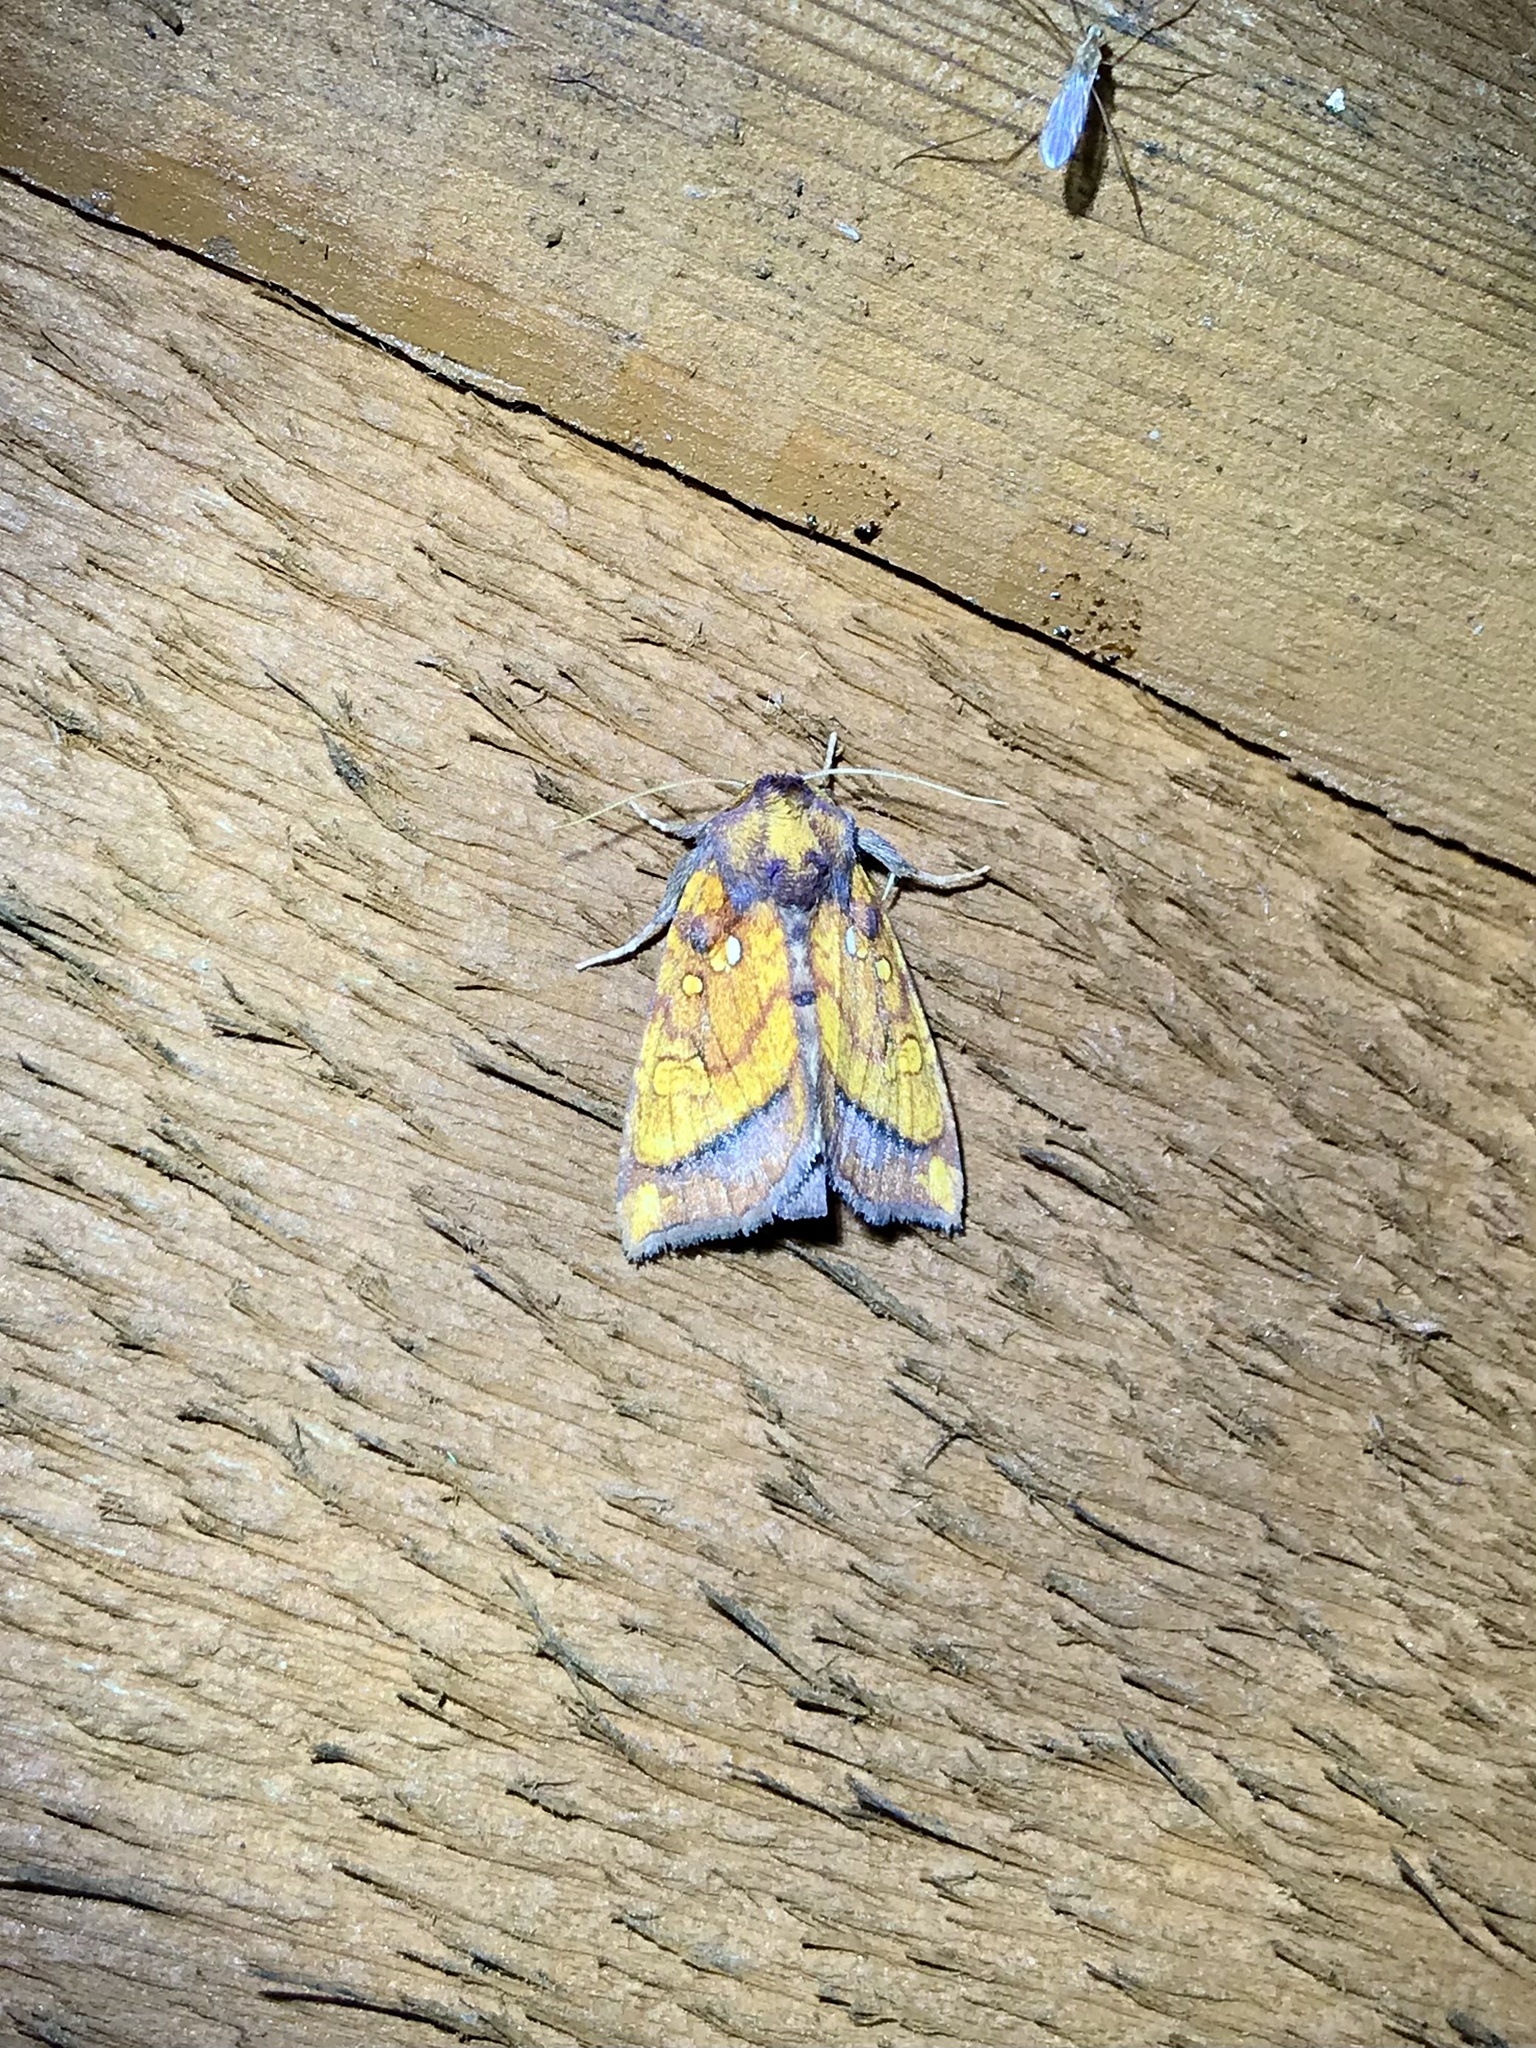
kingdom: Animalia
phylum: Arthropoda
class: Insecta
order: Lepidoptera
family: Noctuidae
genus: Papaipema
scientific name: Papaipema leucostigma
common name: Columbine borer moth
